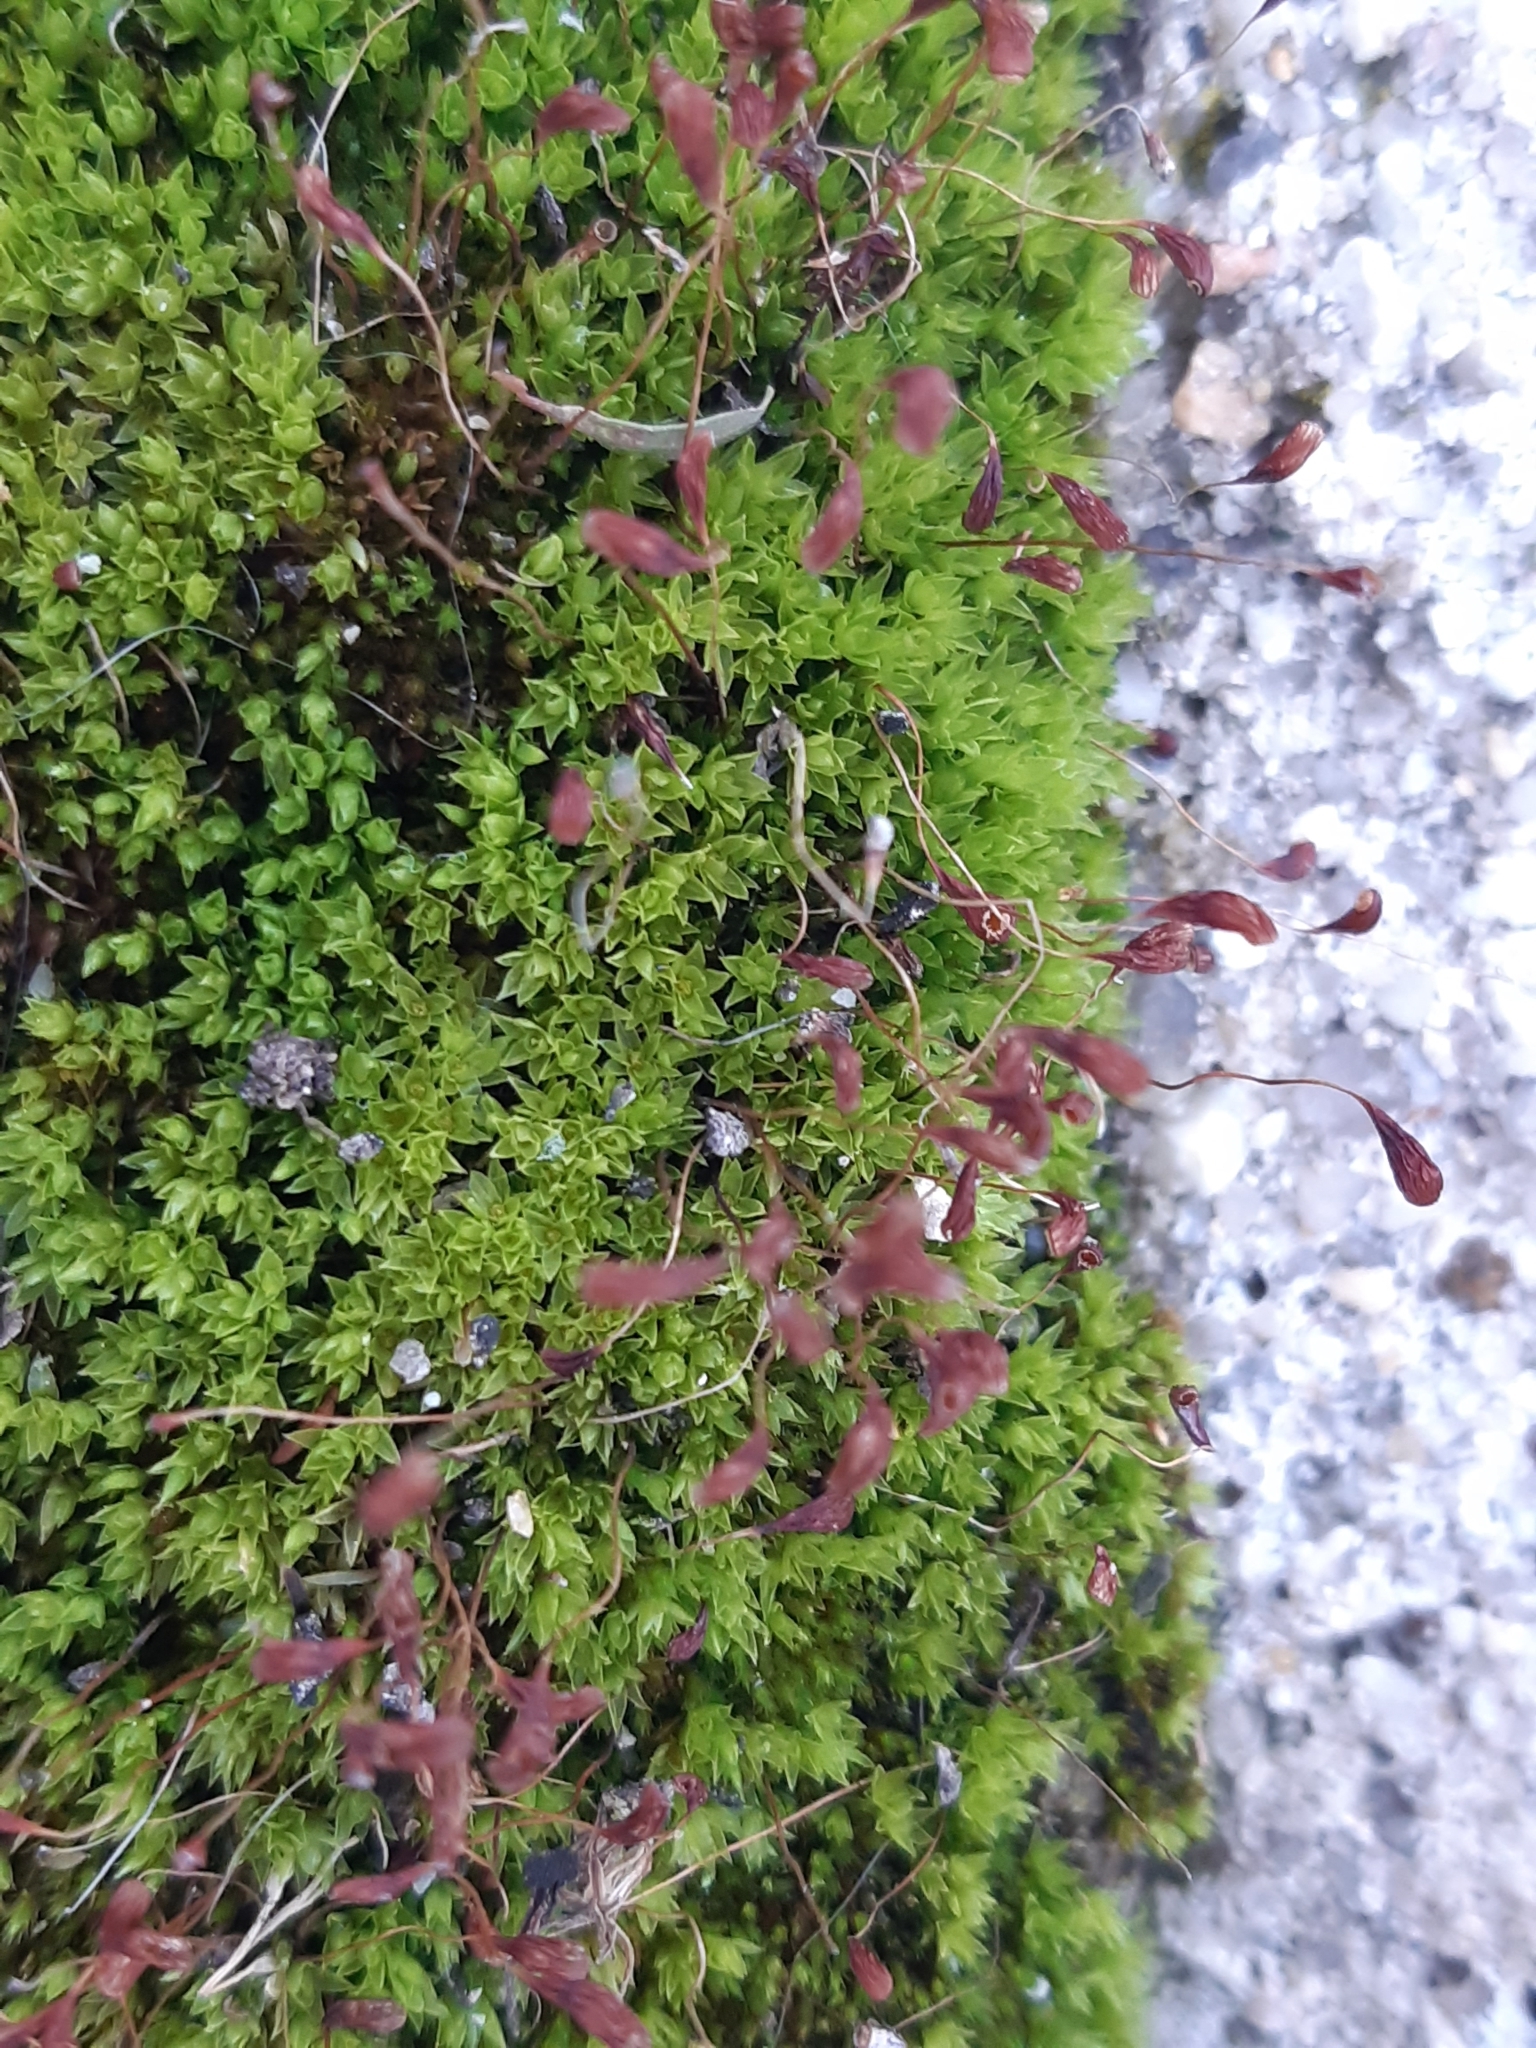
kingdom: Plantae
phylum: Bryophyta
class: Bryopsida
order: Funariales
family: Funariaceae
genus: Funaria
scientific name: Funaria hygrometrica
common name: Common cord moss
